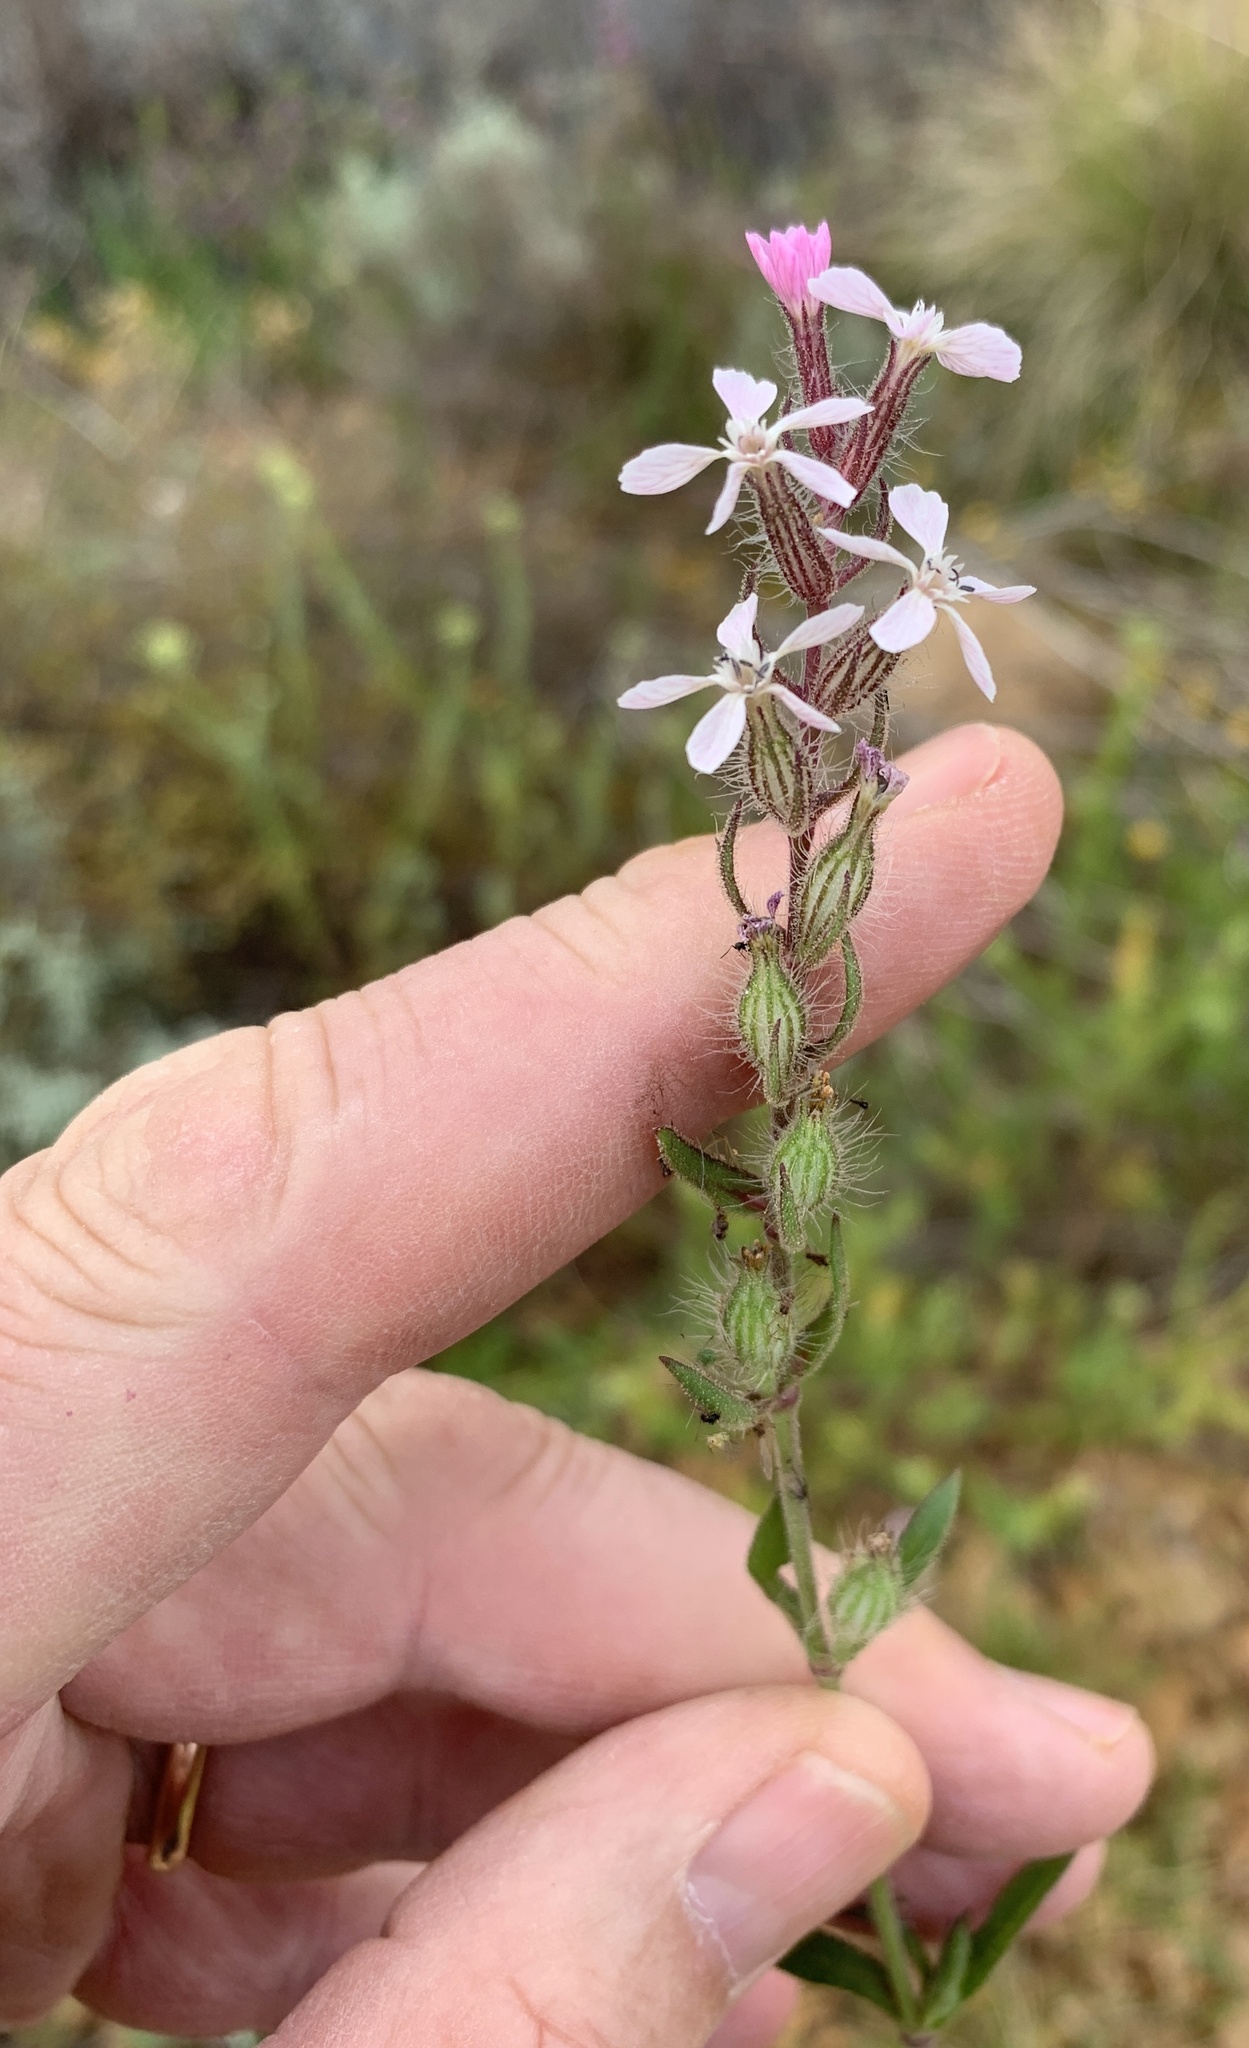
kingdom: Plantae
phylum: Tracheophyta
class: Magnoliopsida
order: Caryophyllales
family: Caryophyllaceae
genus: Silene
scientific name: Silene gallica
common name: Small-flowered catchfly
